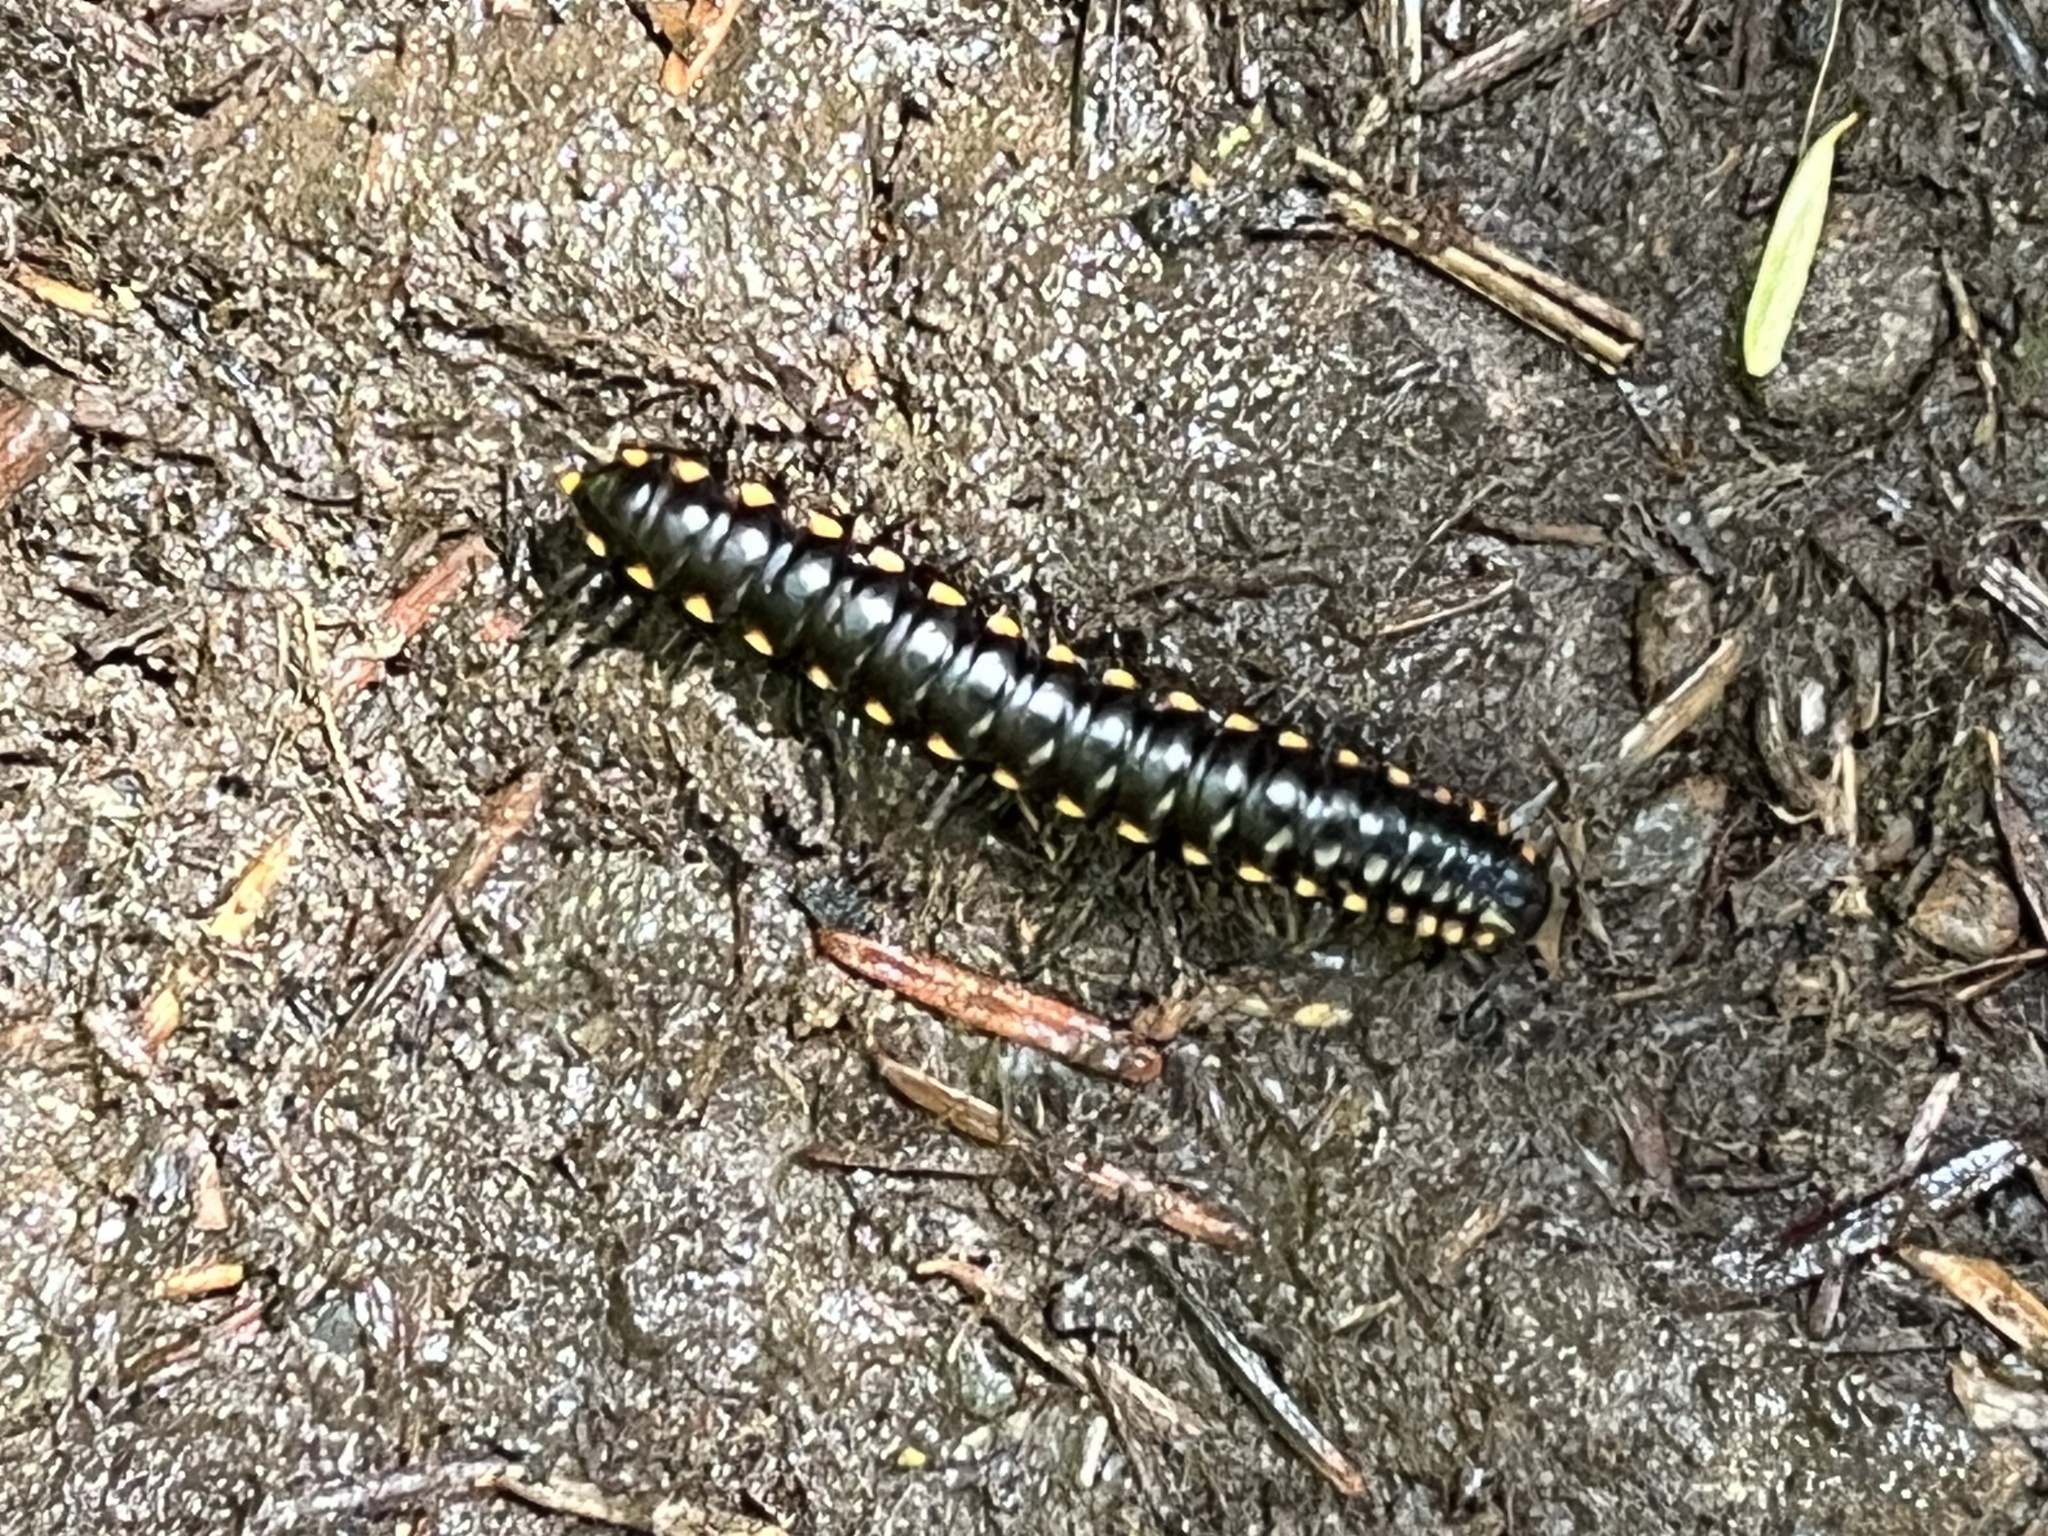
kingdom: Animalia
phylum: Arthropoda
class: Diplopoda
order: Polydesmida
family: Xystodesmidae
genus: Harpaphe
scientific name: Harpaphe haydeniana
